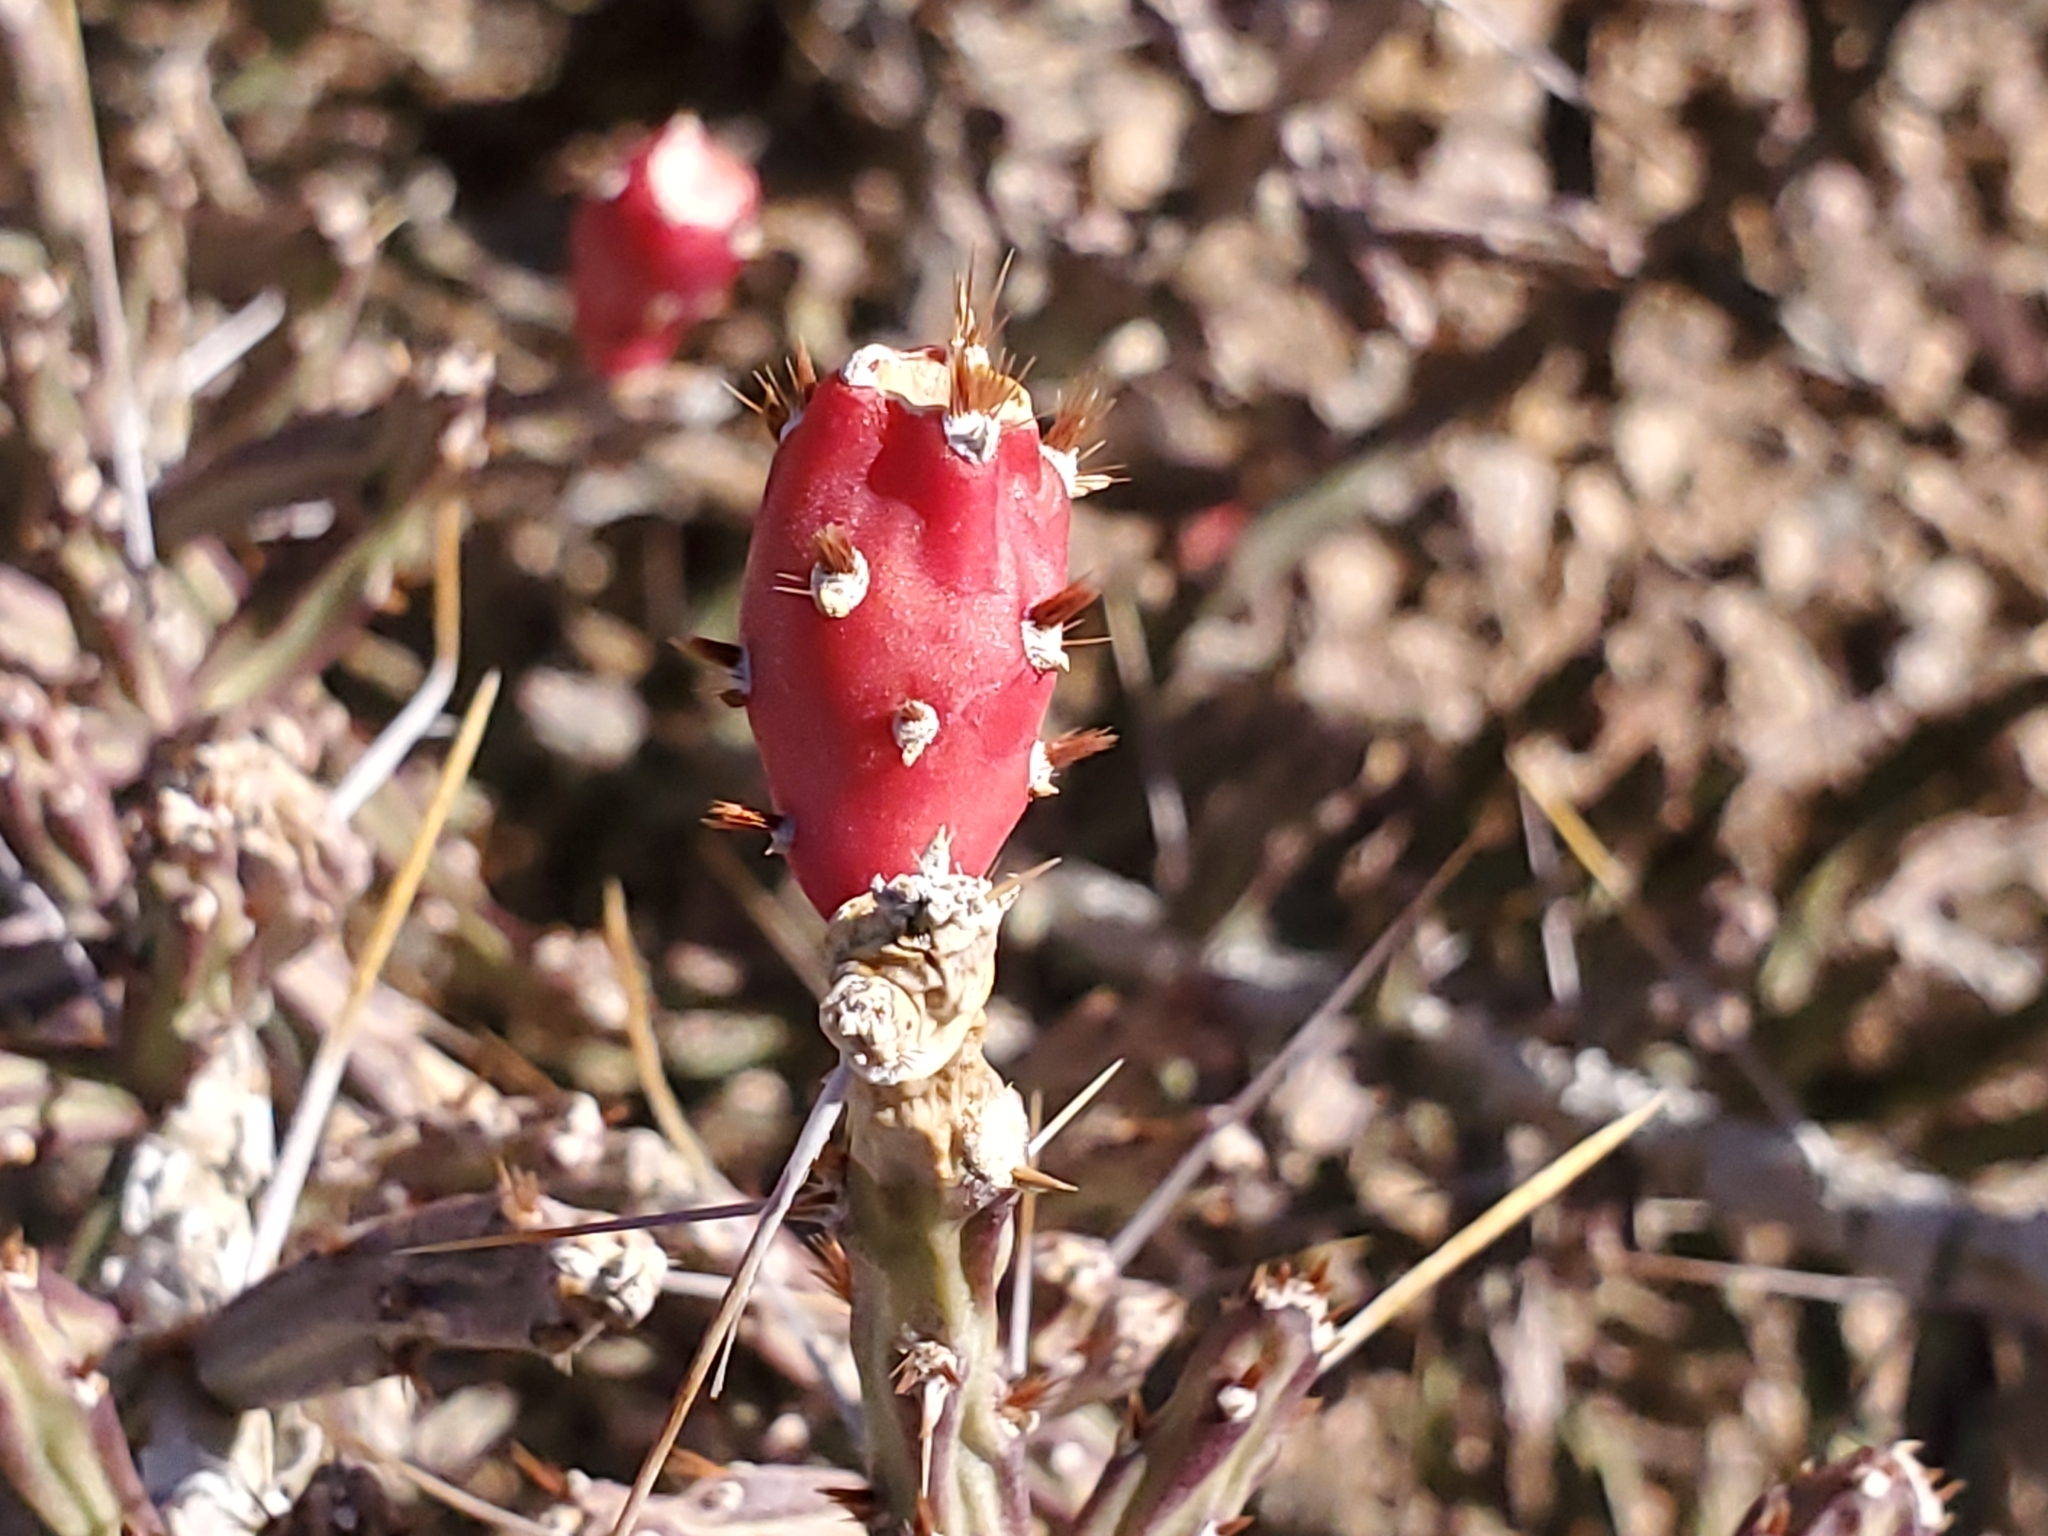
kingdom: Plantae
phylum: Tracheophyta
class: Magnoliopsida
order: Caryophyllales
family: Cactaceae
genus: Cylindropuntia
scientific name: Cylindropuntia leptocaulis
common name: Christmas cactus
